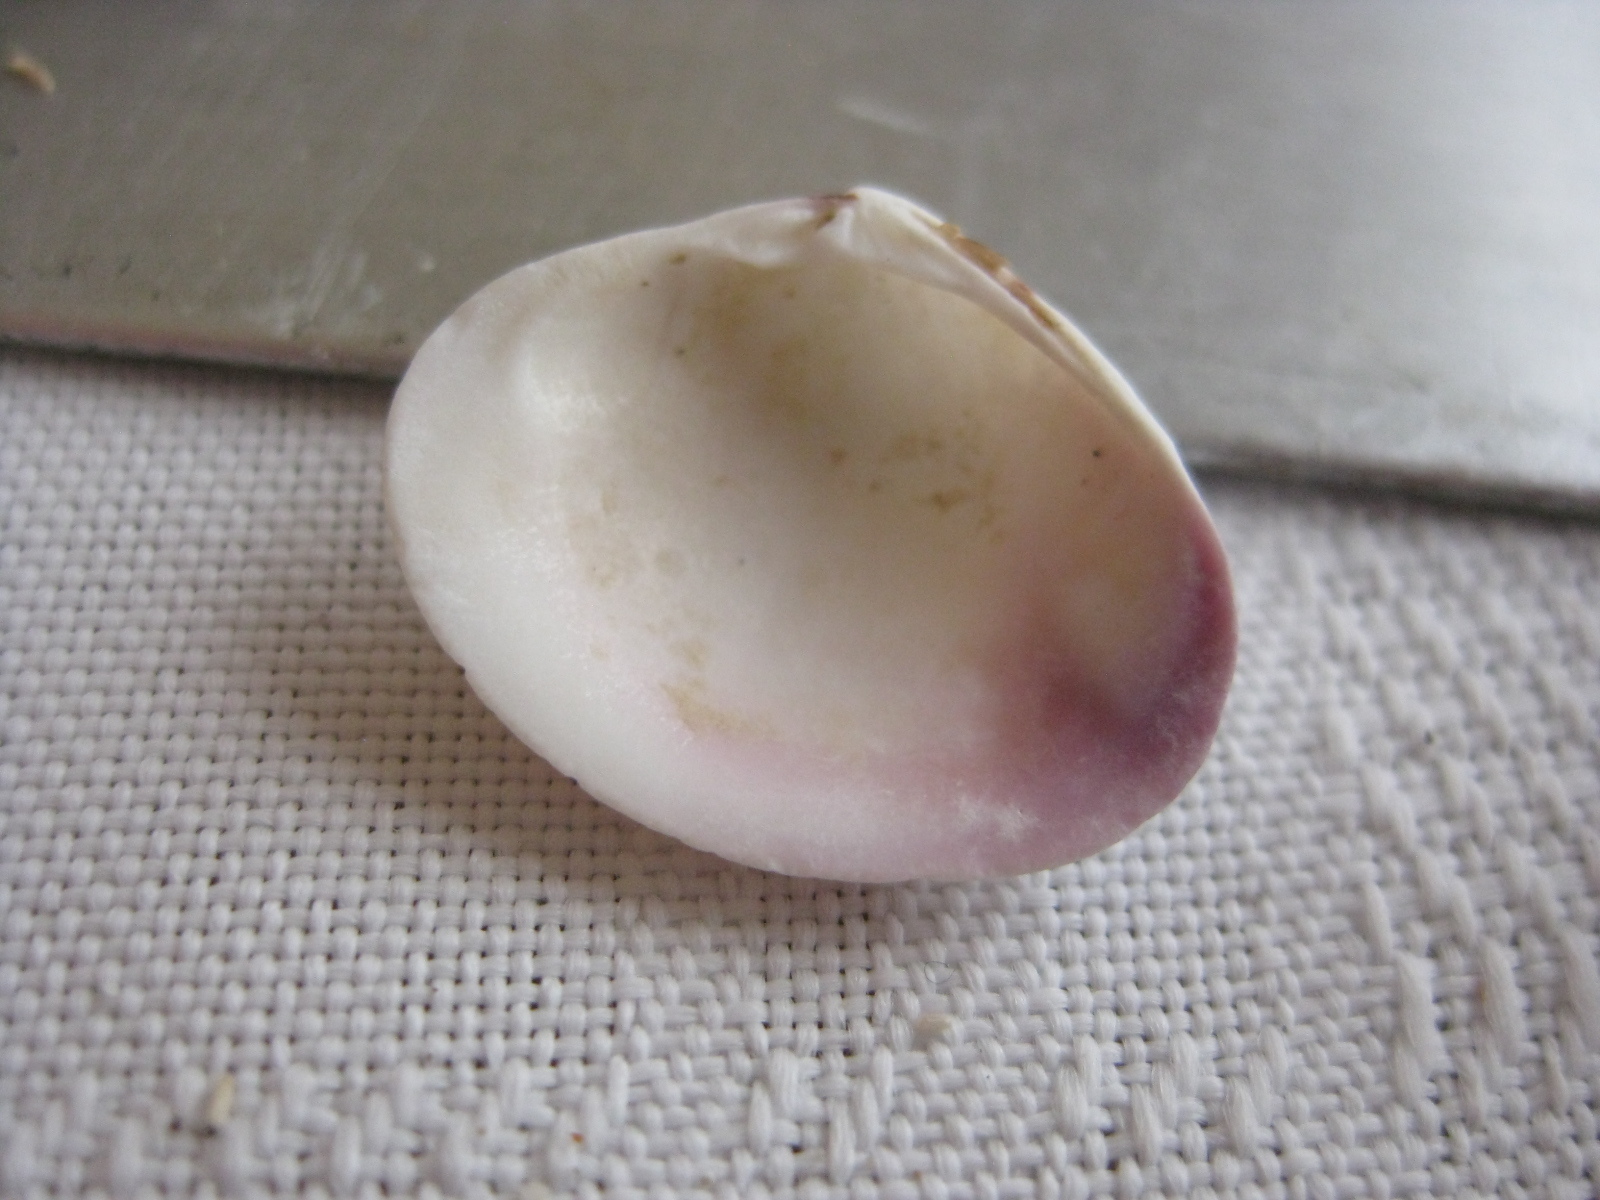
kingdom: Animalia
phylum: Mollusca
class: Bivalvia
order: Venerida
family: Veneridae
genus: Tawera
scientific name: Tawera spissa
